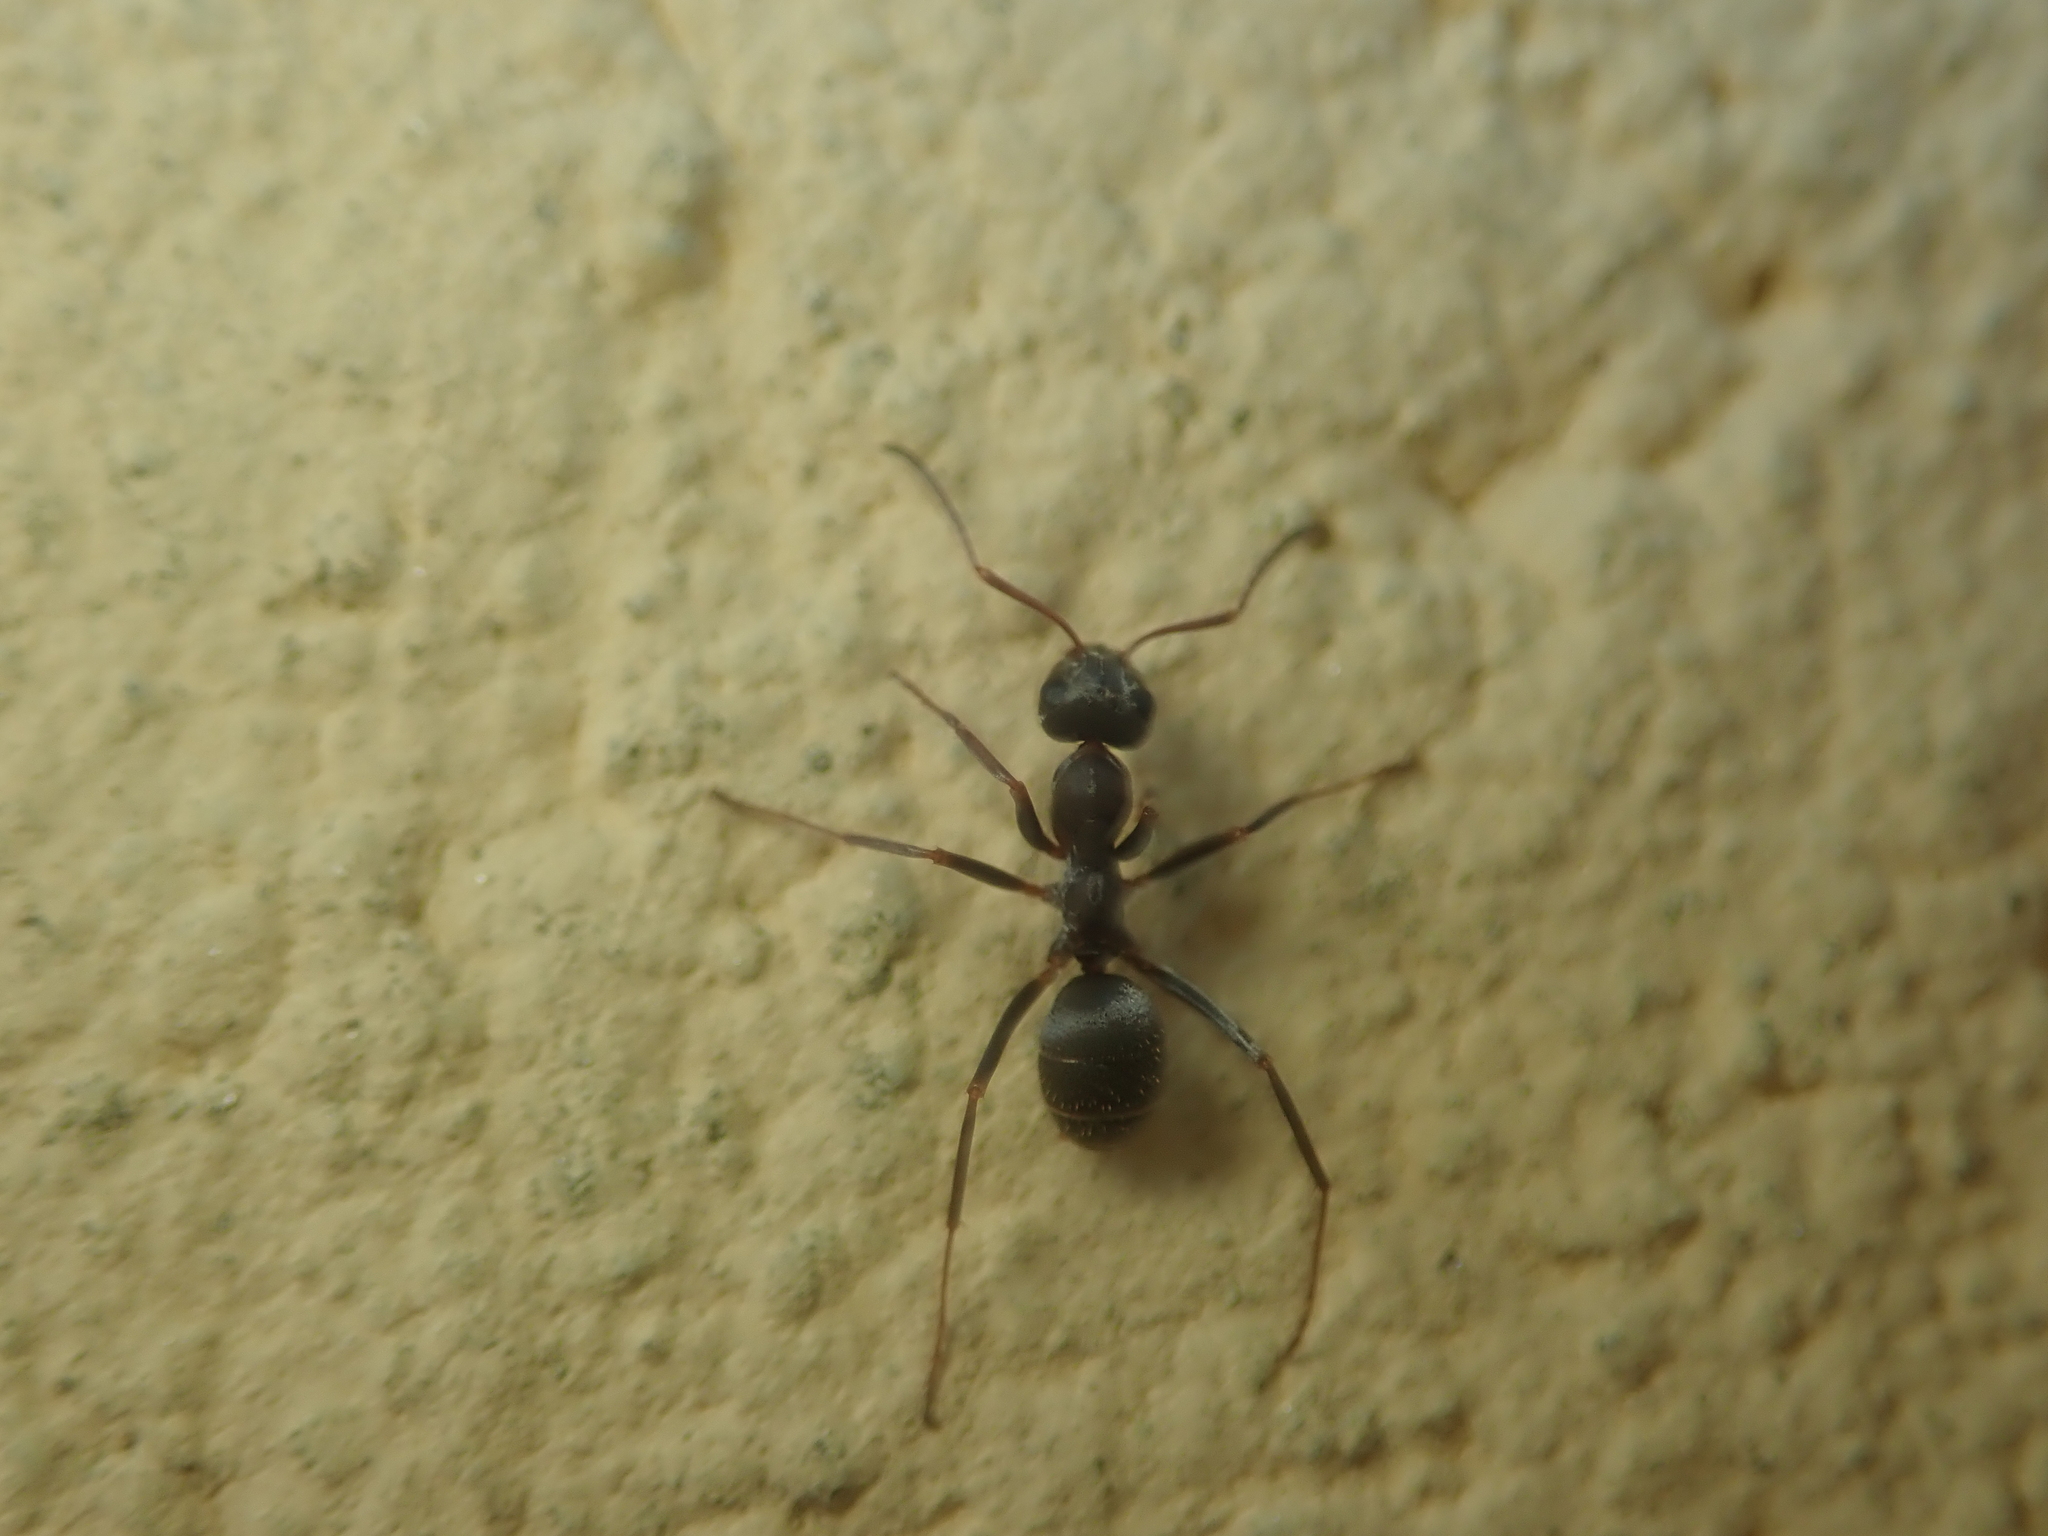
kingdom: Animalia
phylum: Arthropoda
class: Insecta
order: Hymenoptera
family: Formicidae
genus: Formica
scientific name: Formica cinerea
